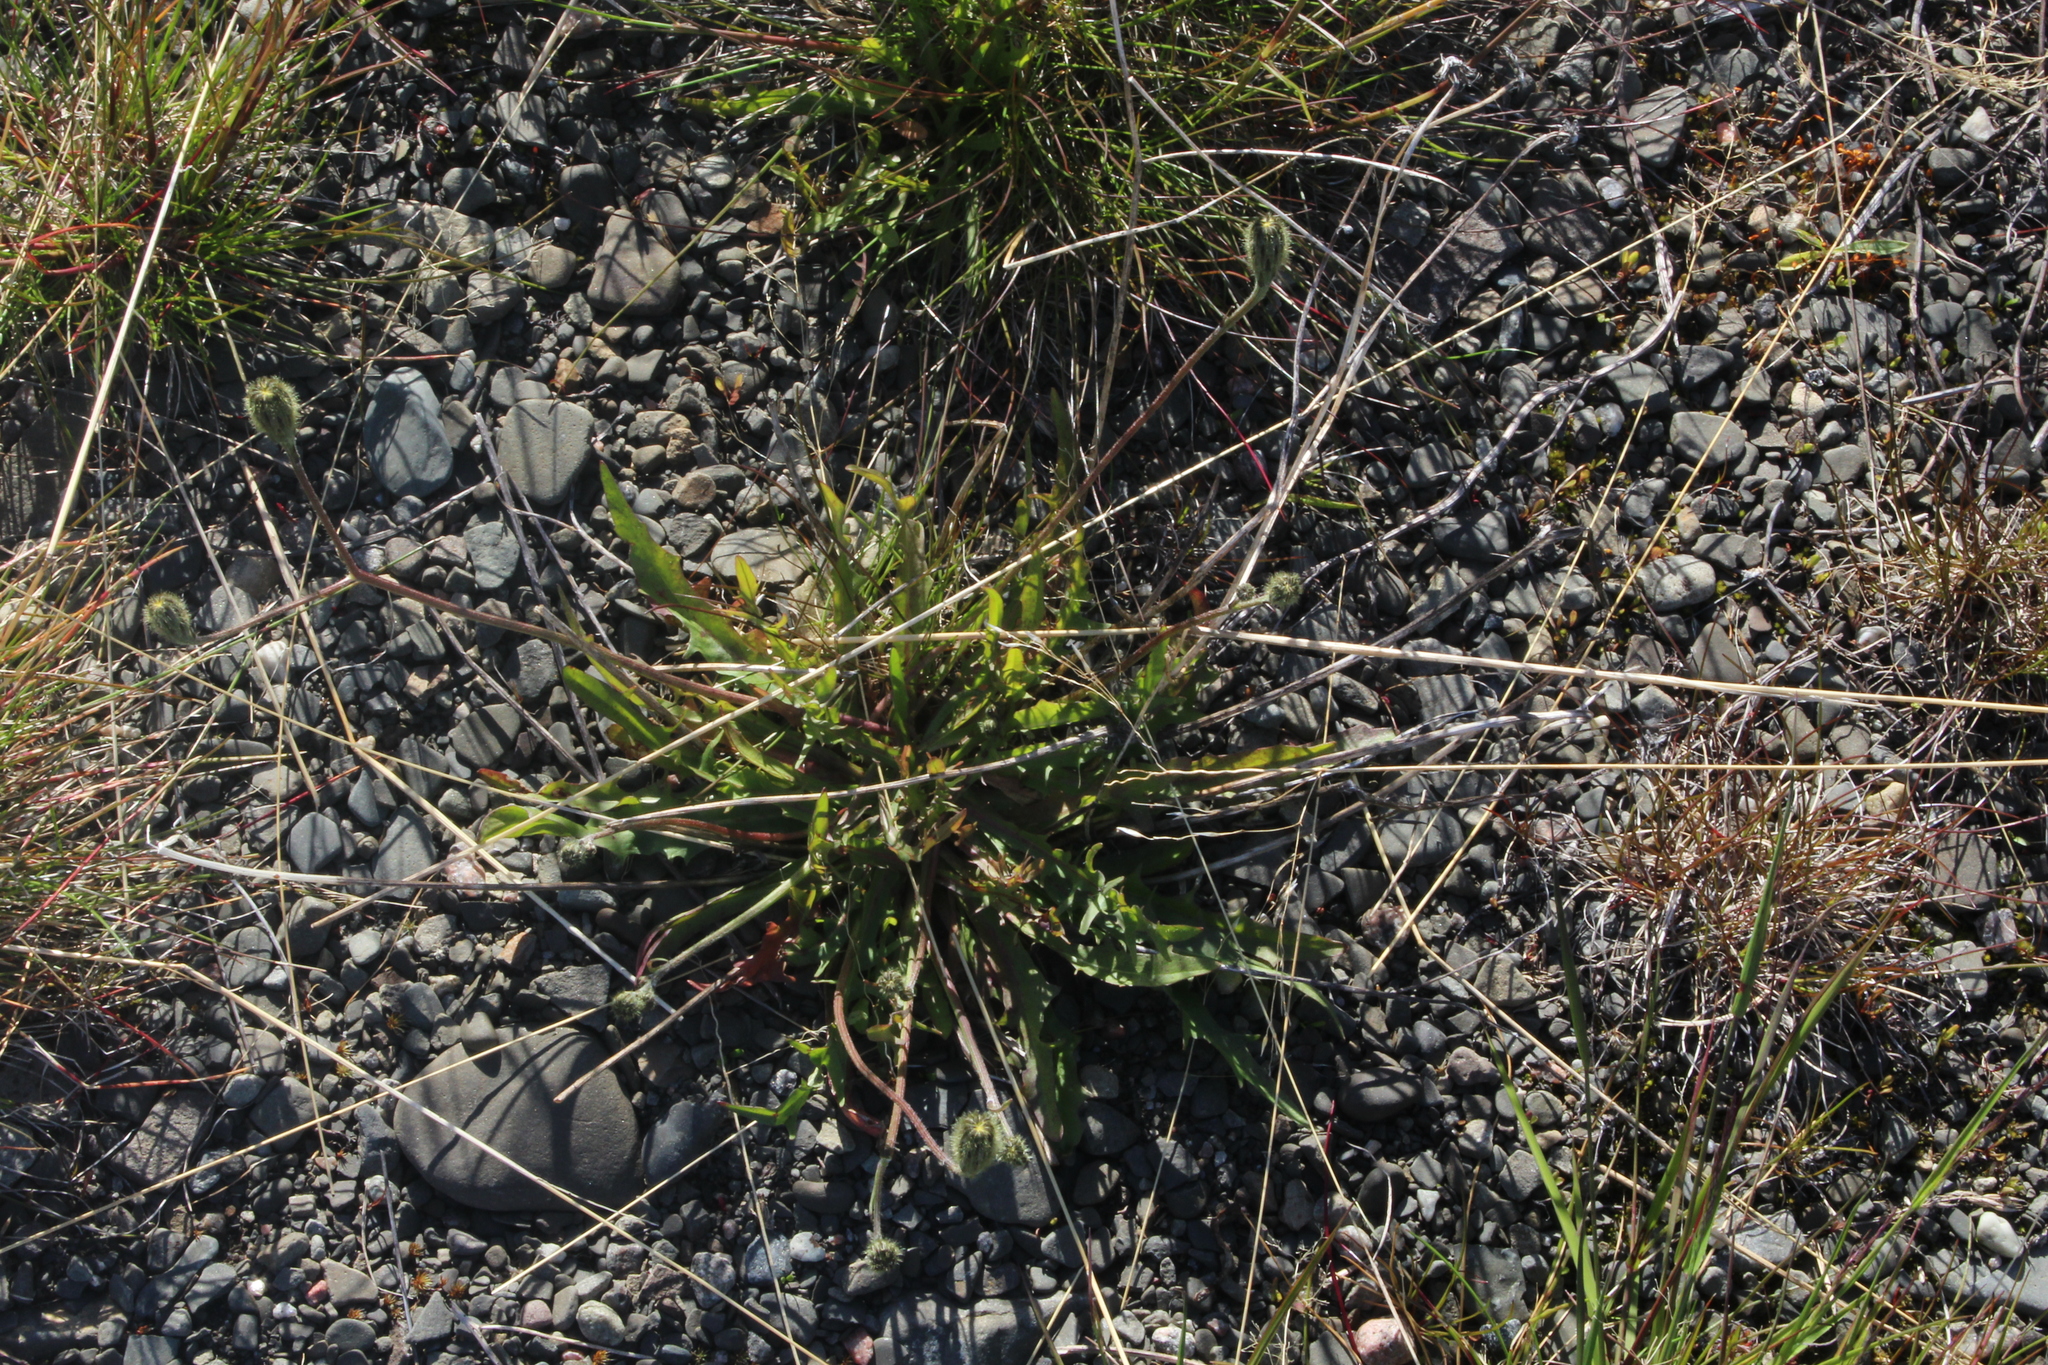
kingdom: Plantae
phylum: Tracheophyta
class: Magnoliopsida
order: Asterales
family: Asteraceae
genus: Scorzoneroides
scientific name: Scorzoneroides autumnalis
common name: Autumn hawkbit
